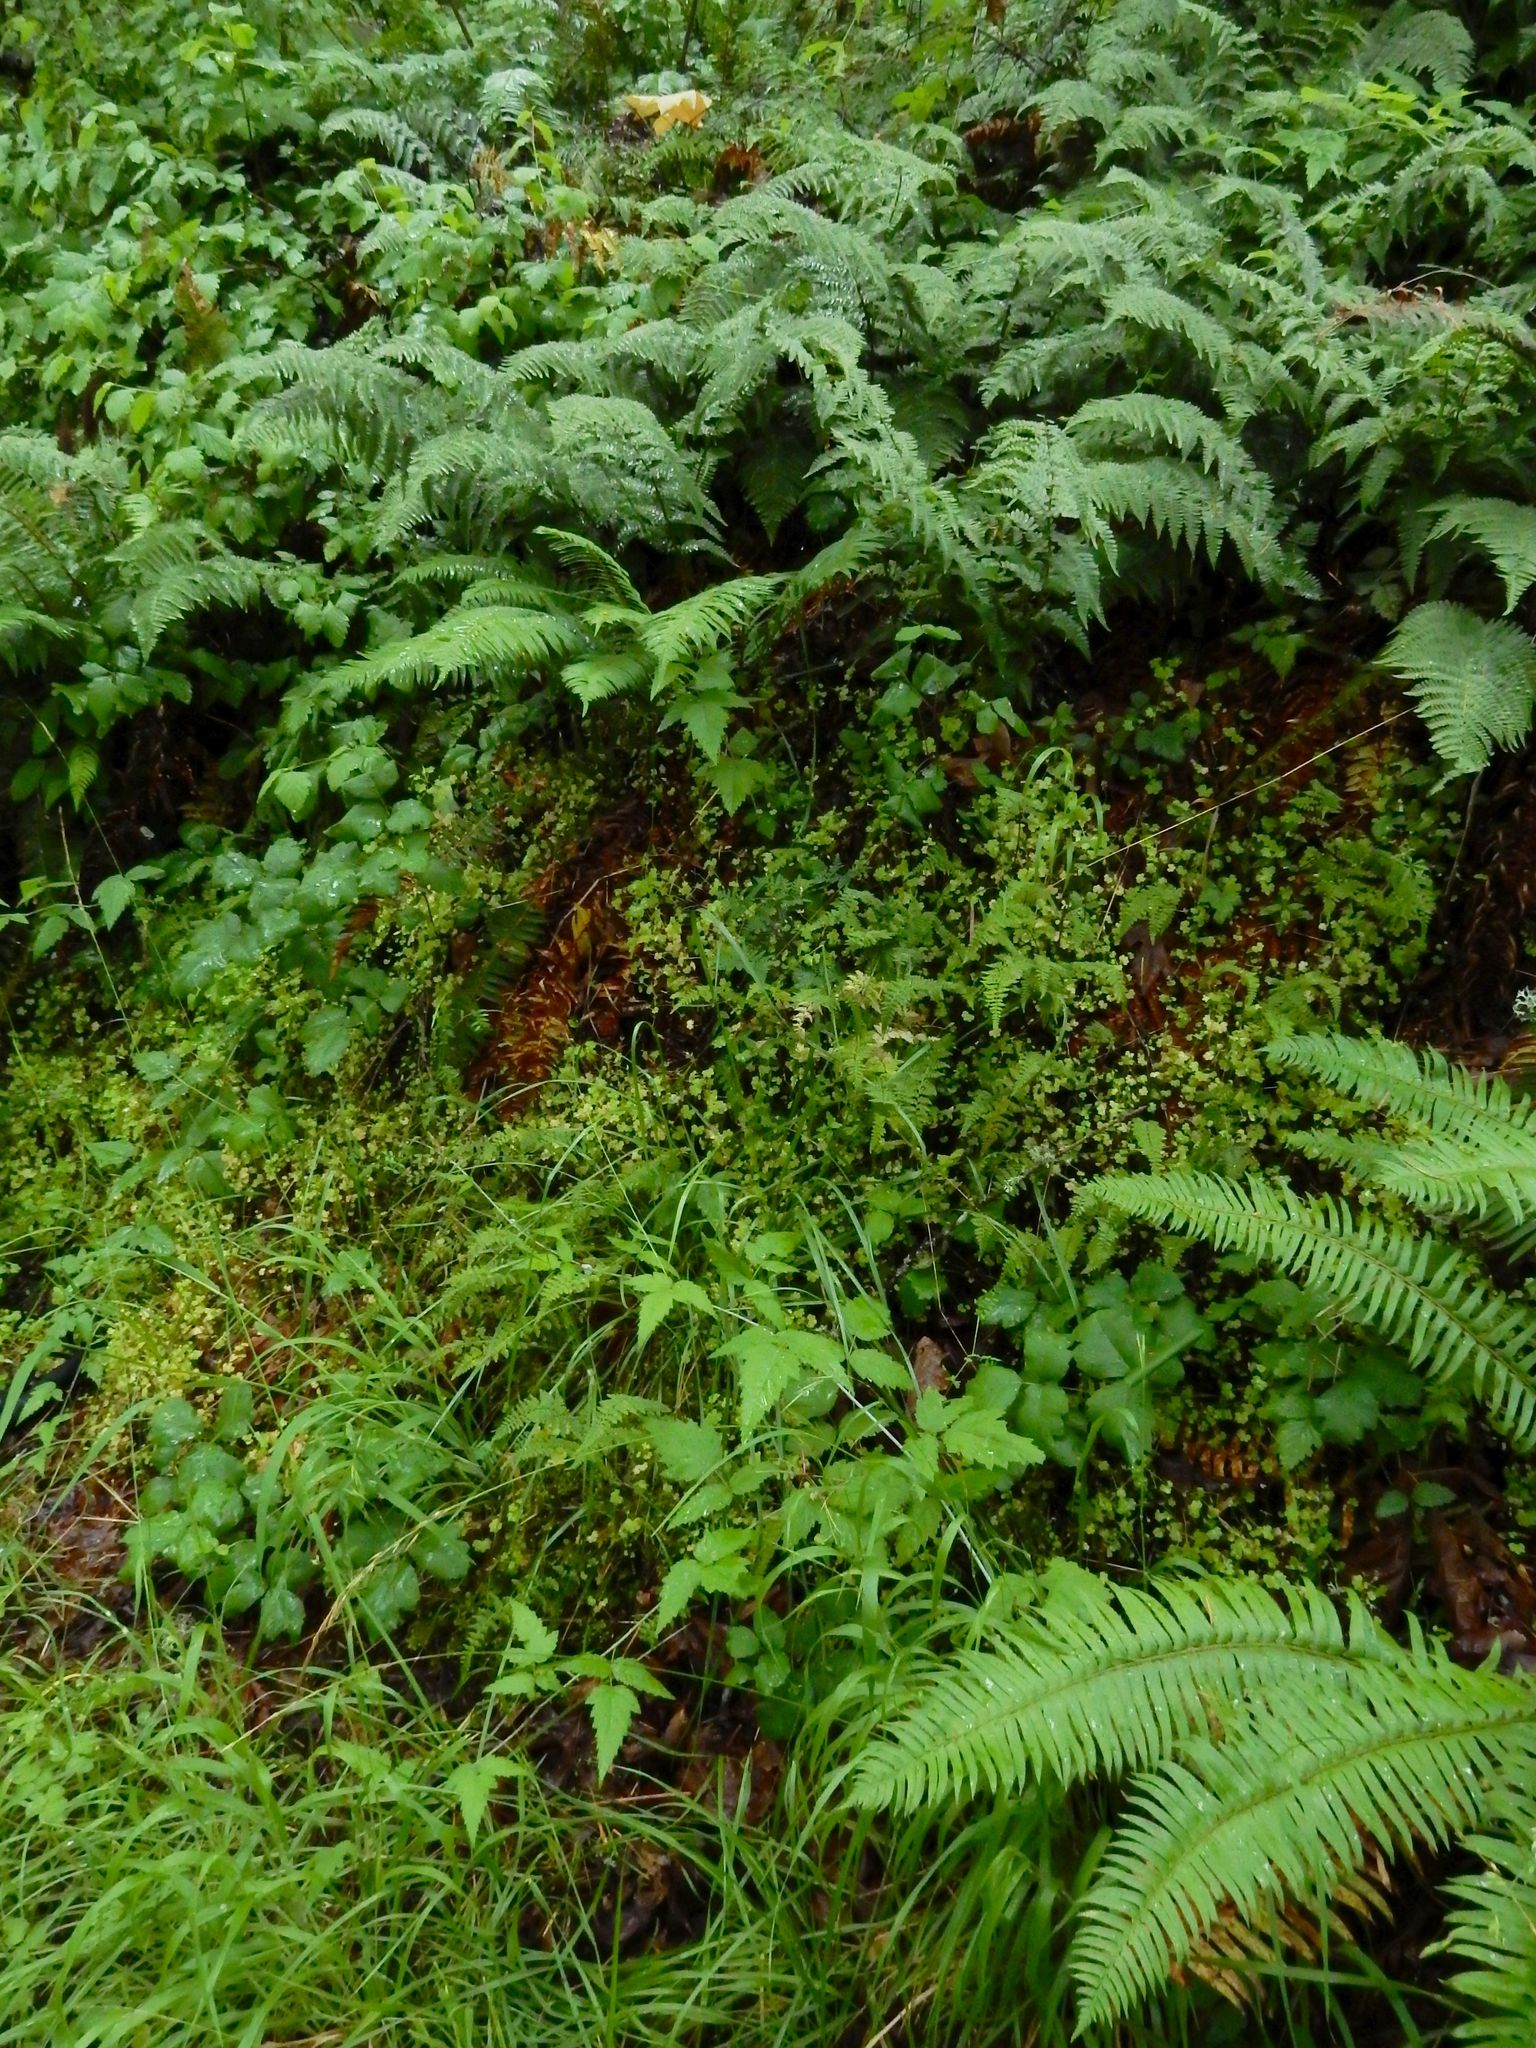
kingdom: Plantae
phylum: Tracheophyta
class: Polypodiopsida
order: Polypodiales
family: Cystopteridaceae
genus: Cystopteris
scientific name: Cystopteris fragilis
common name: Brittle bladder fern
